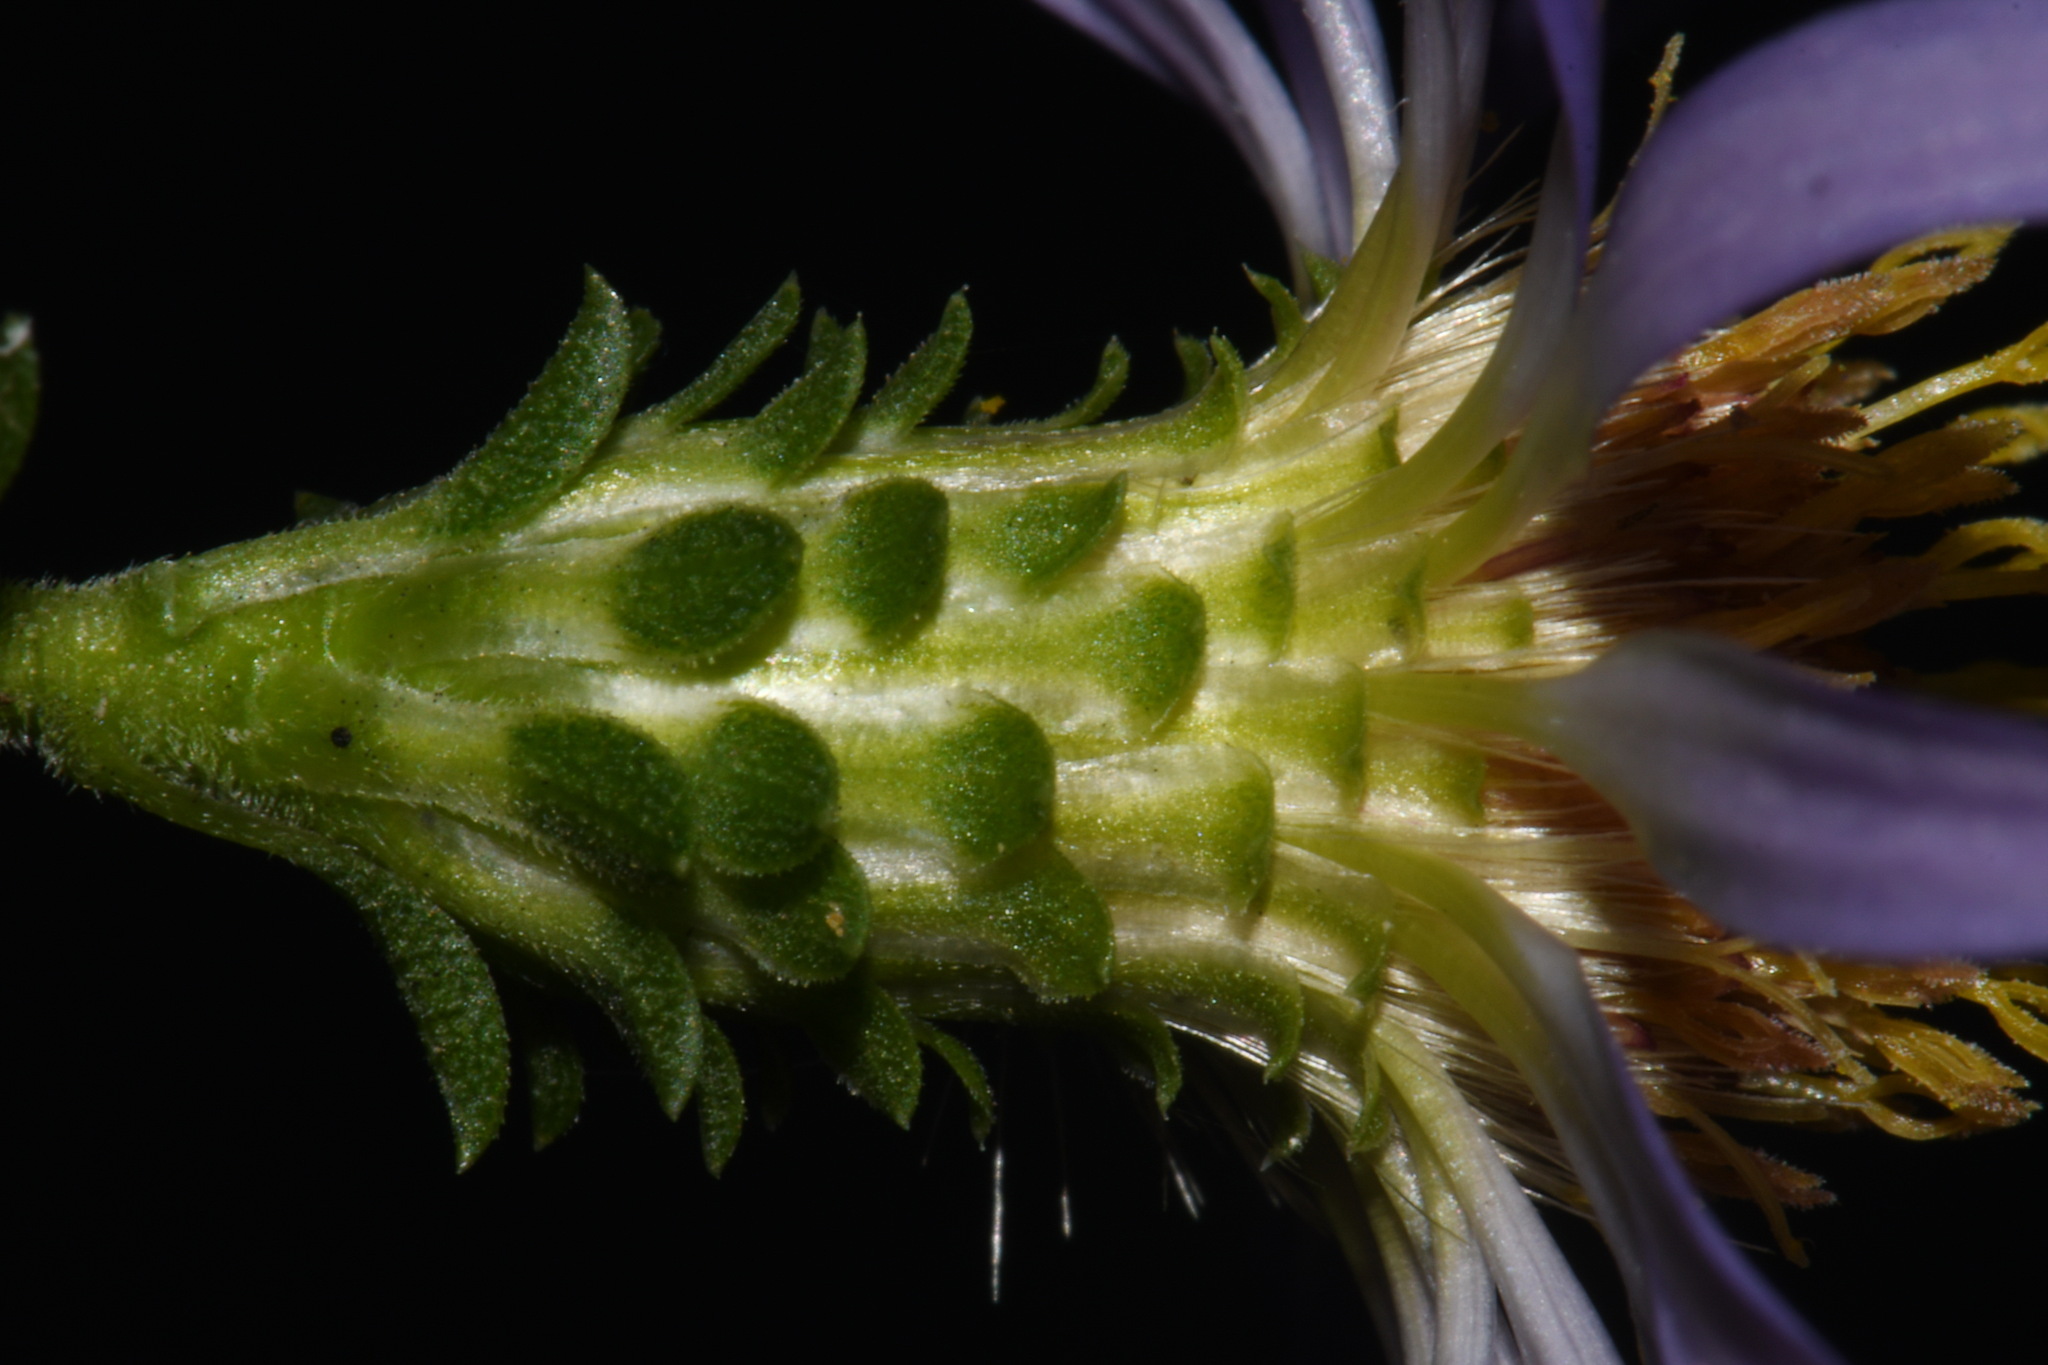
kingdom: Plantae
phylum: Tracheophyta
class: Magnoliopsida
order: Asterales
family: Asteraceae
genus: Eurybia
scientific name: Eurybia surculosa
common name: Creeping aster
